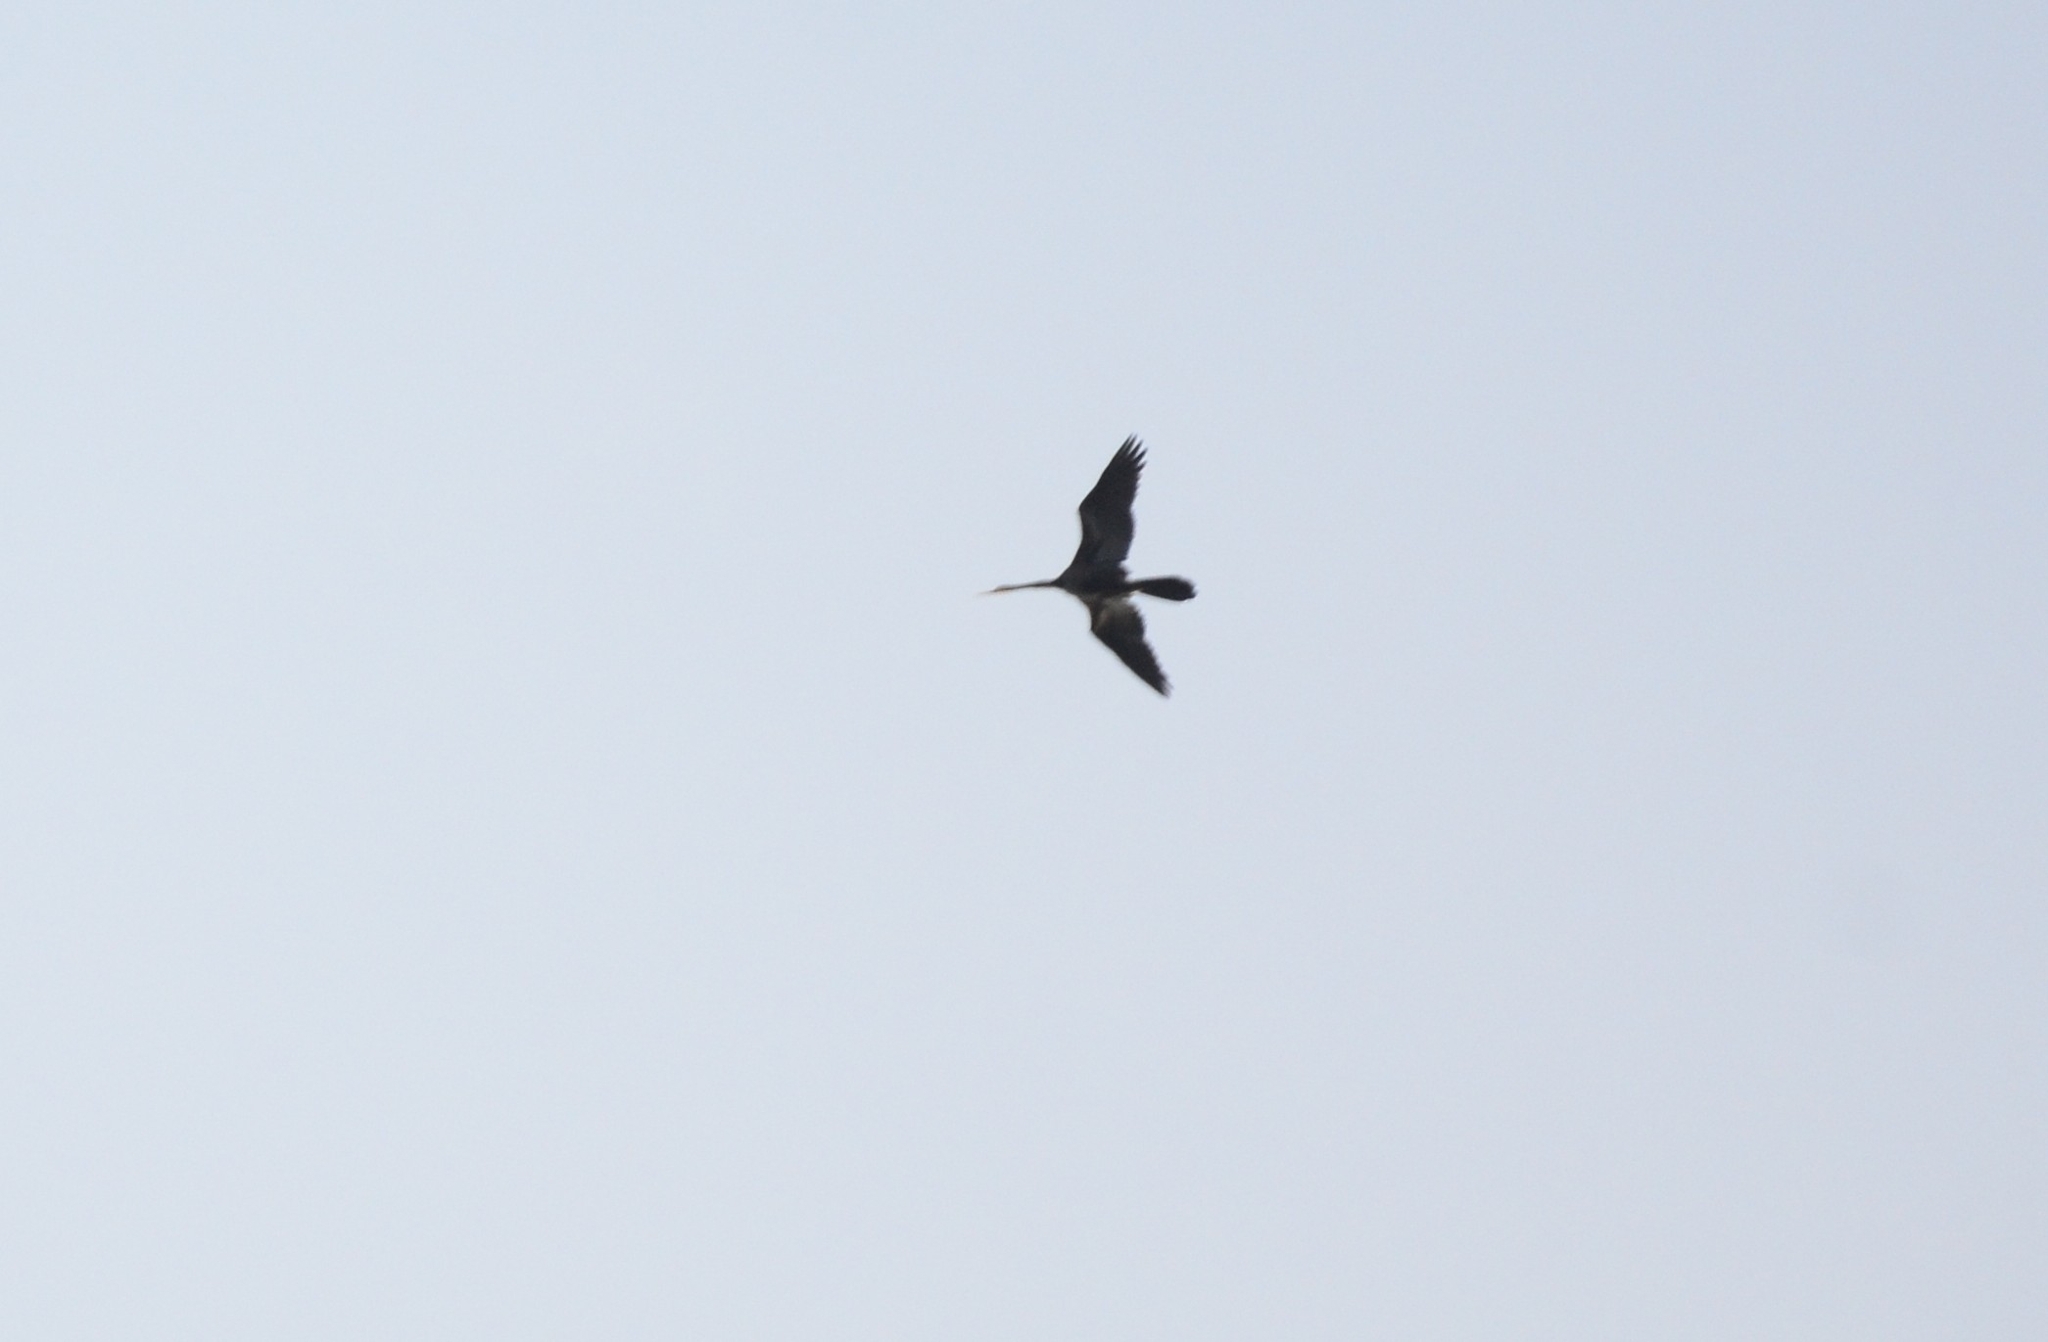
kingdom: Animalia
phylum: Chordata
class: Aves
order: Suliformes
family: Anhingidae
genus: Anhinga
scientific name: Anhinga melanogaster
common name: Oriental darter
